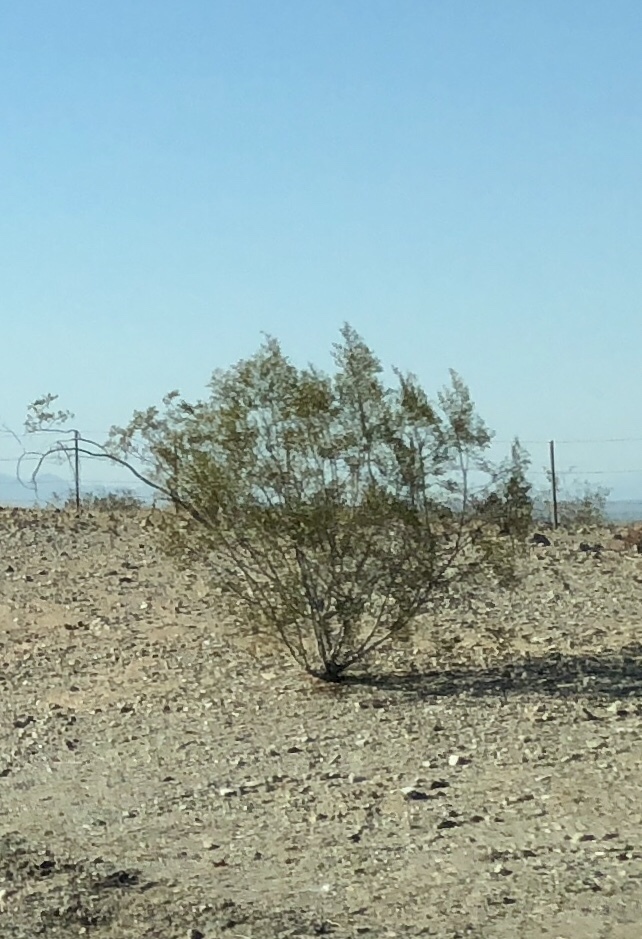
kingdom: Plantae
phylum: Tracheophyta
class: Magnoliopsida
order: Zygophyllales
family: Zygophyllaceae
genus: Larrea
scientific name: Larrea tridentata
